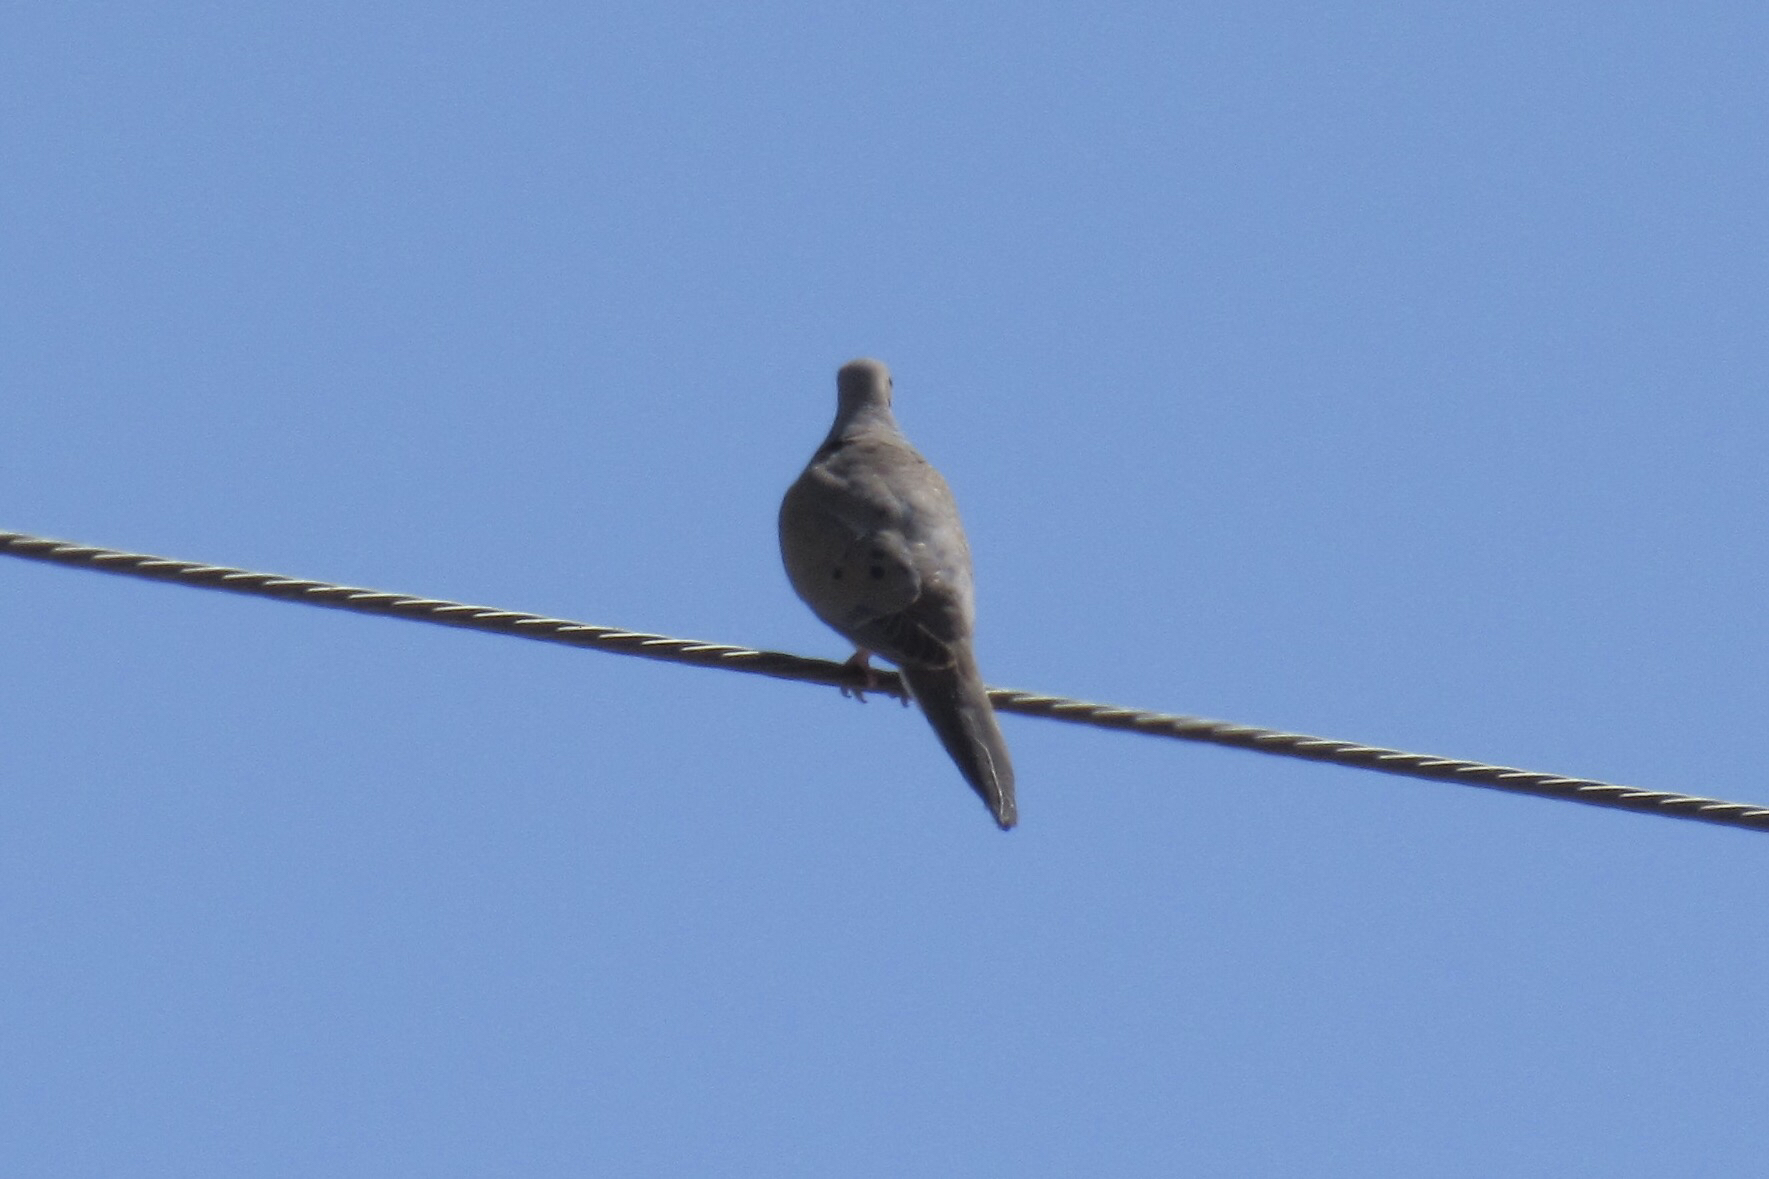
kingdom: Animalia
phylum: Chordata
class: Aves
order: Columbiformes
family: Columbidae
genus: Zenaida
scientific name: Zenaida macroura
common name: Mourning dove
